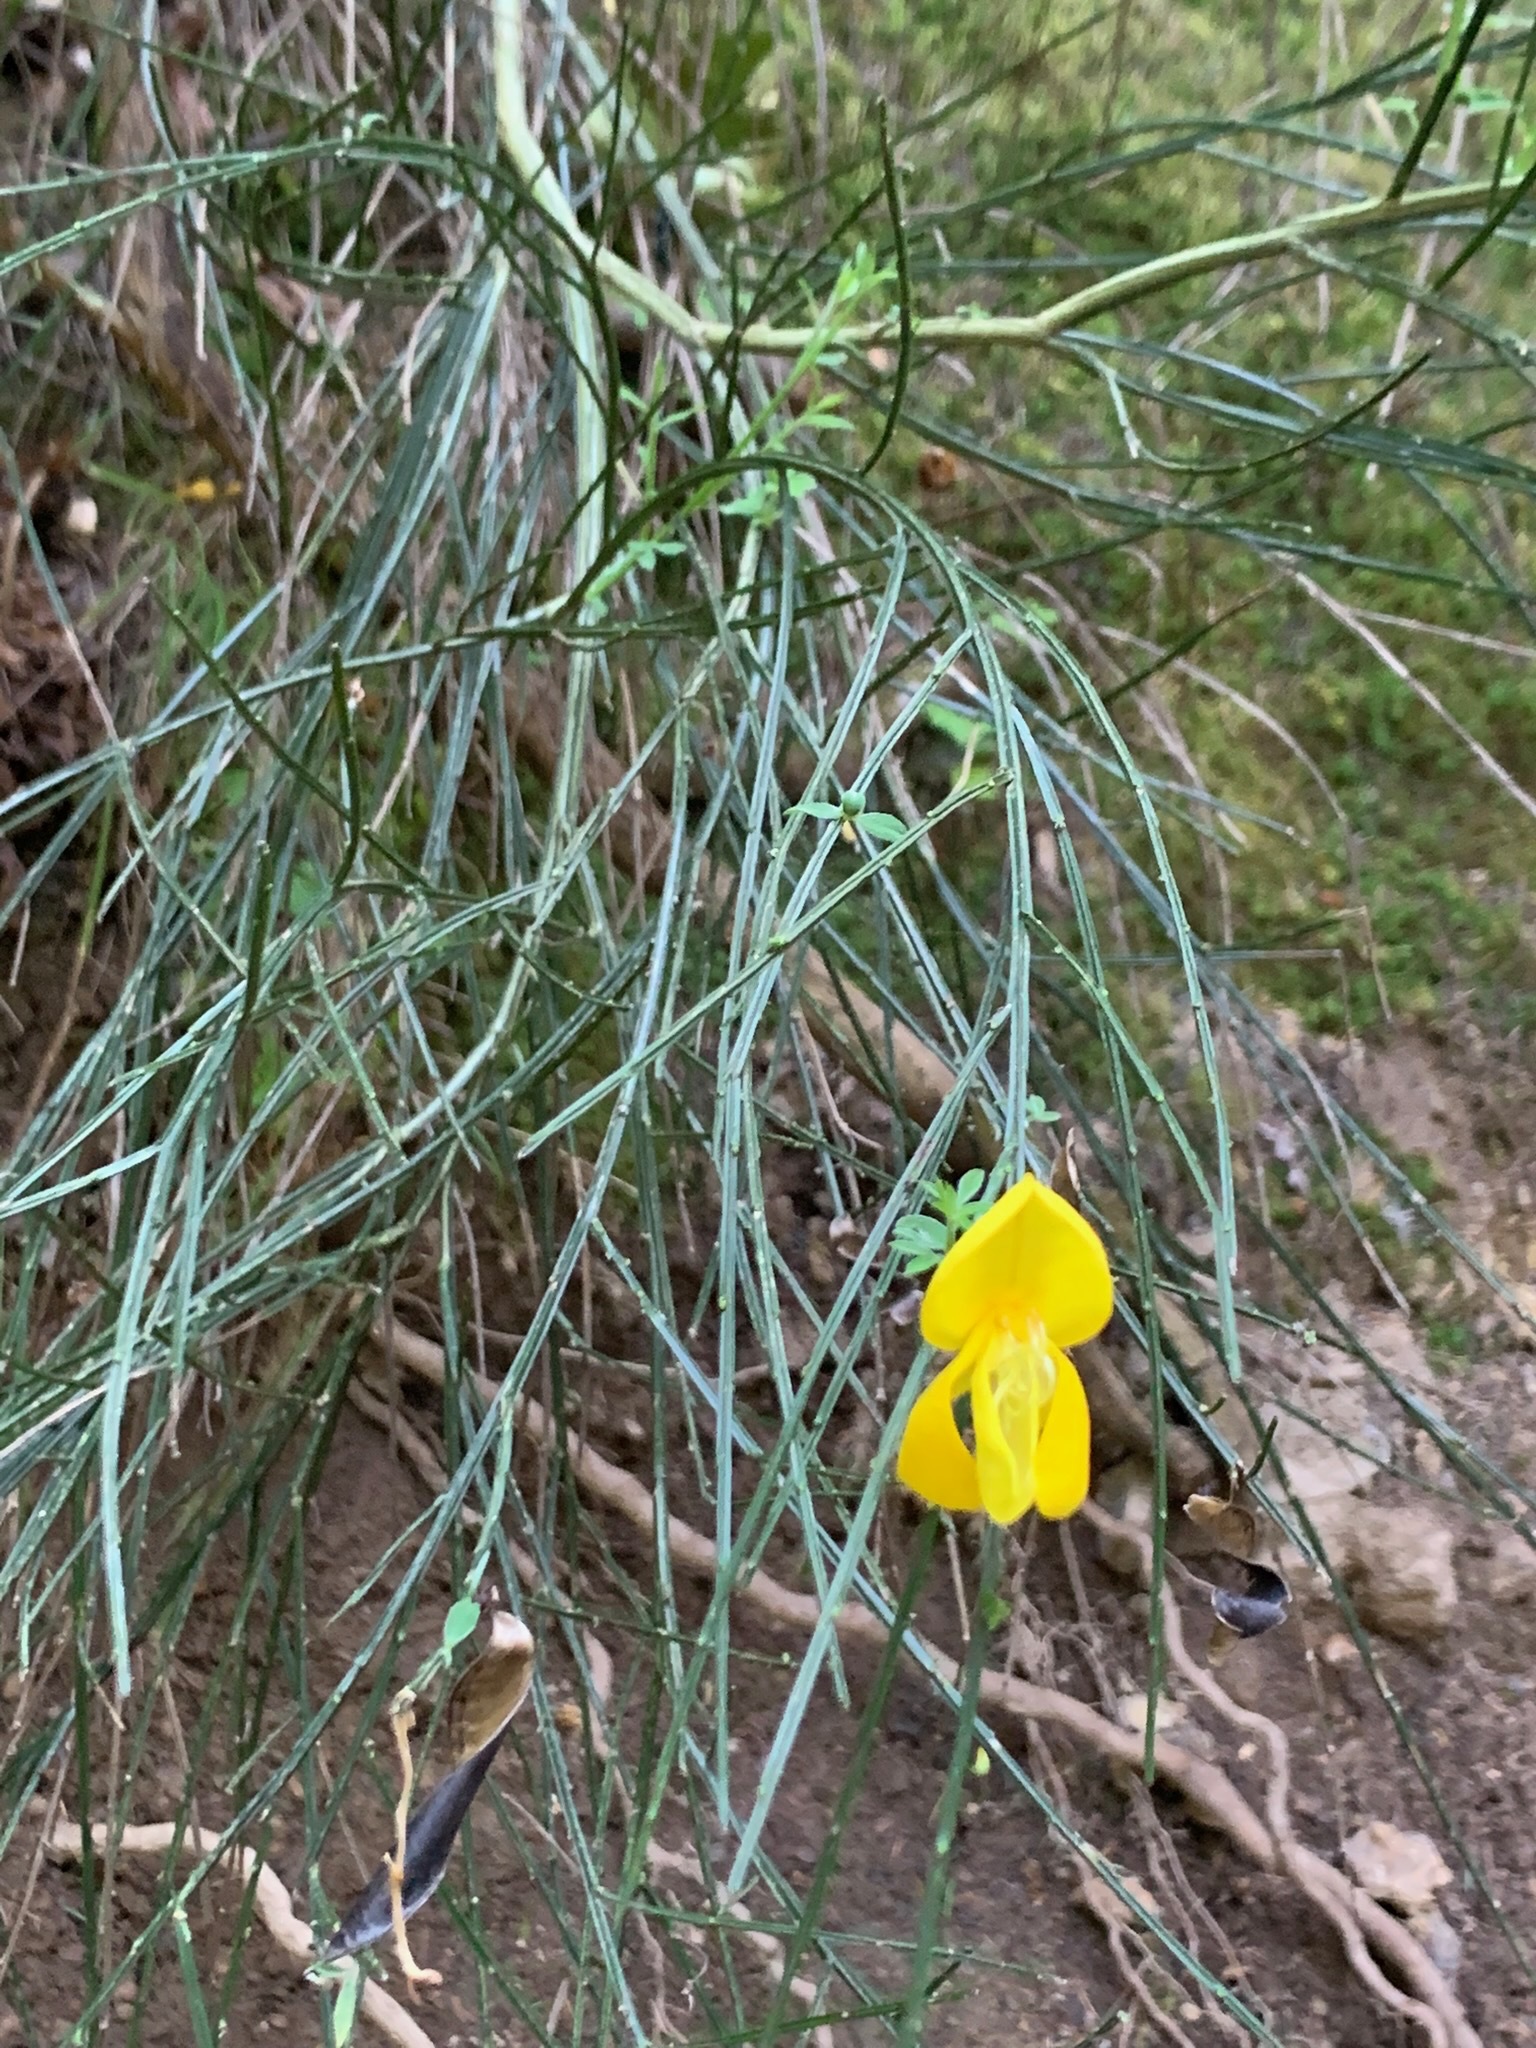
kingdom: Plantae
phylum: Tracheophyta
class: Magnoliopsida
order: Fabales
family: Fabaceae
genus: Cytisus
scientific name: Cytisus scoparius
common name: Scotch broom
